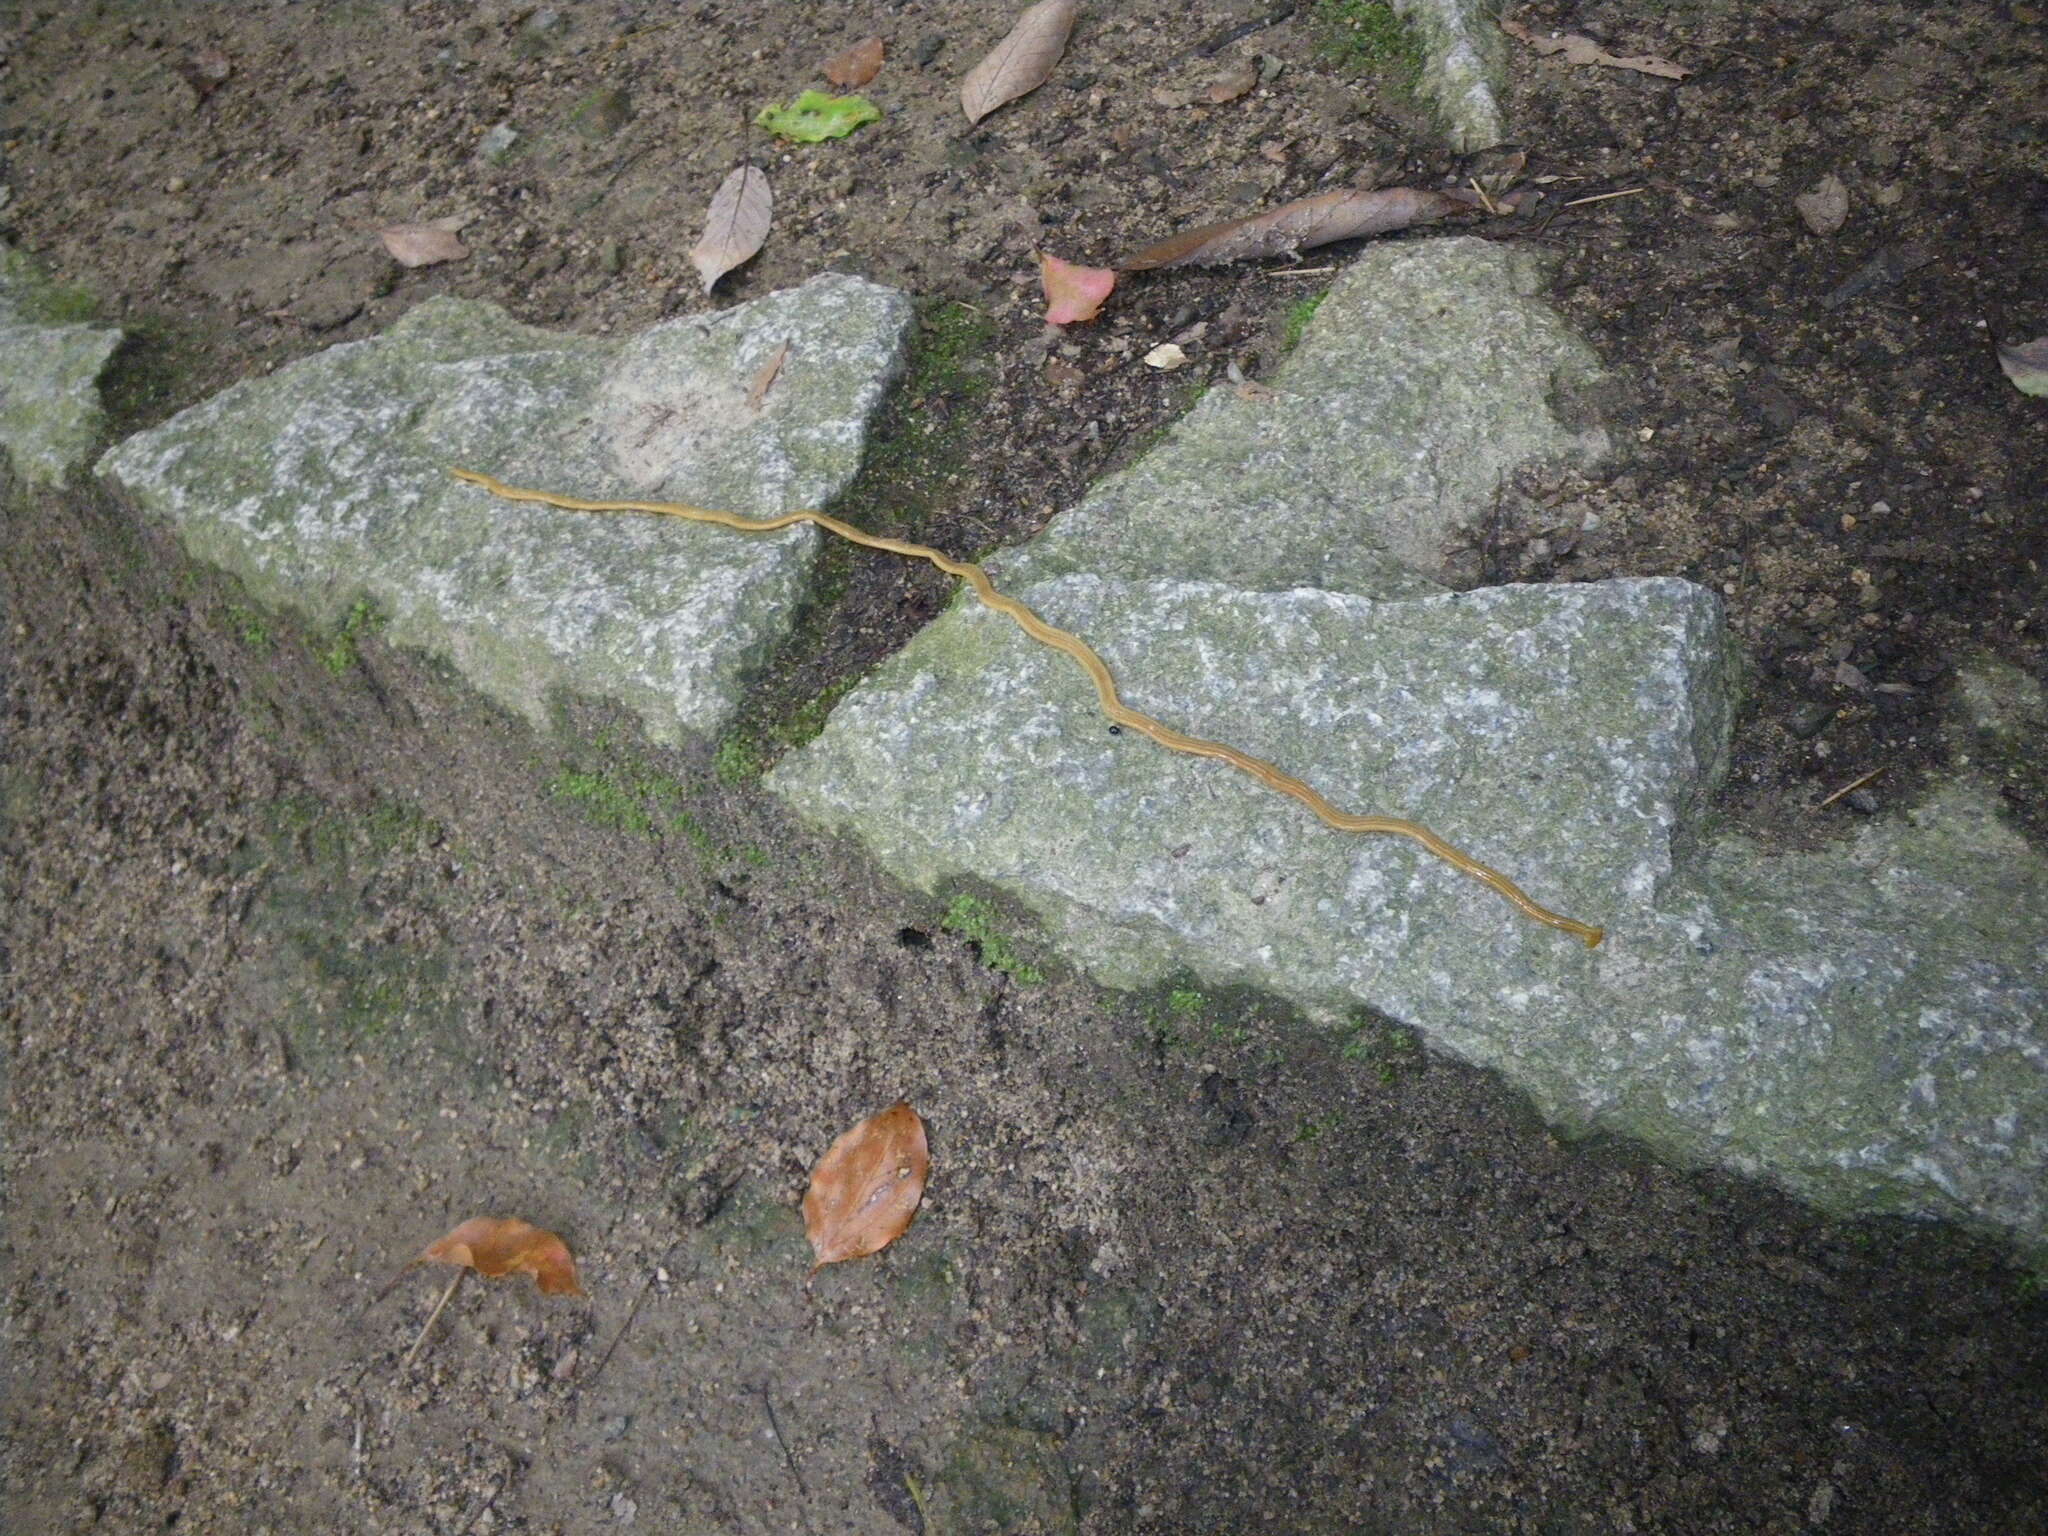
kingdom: Animalia
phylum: Platyhelminthes
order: Tricladida
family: Geoplanidae
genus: Bipalium
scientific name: Bipalium nobile
